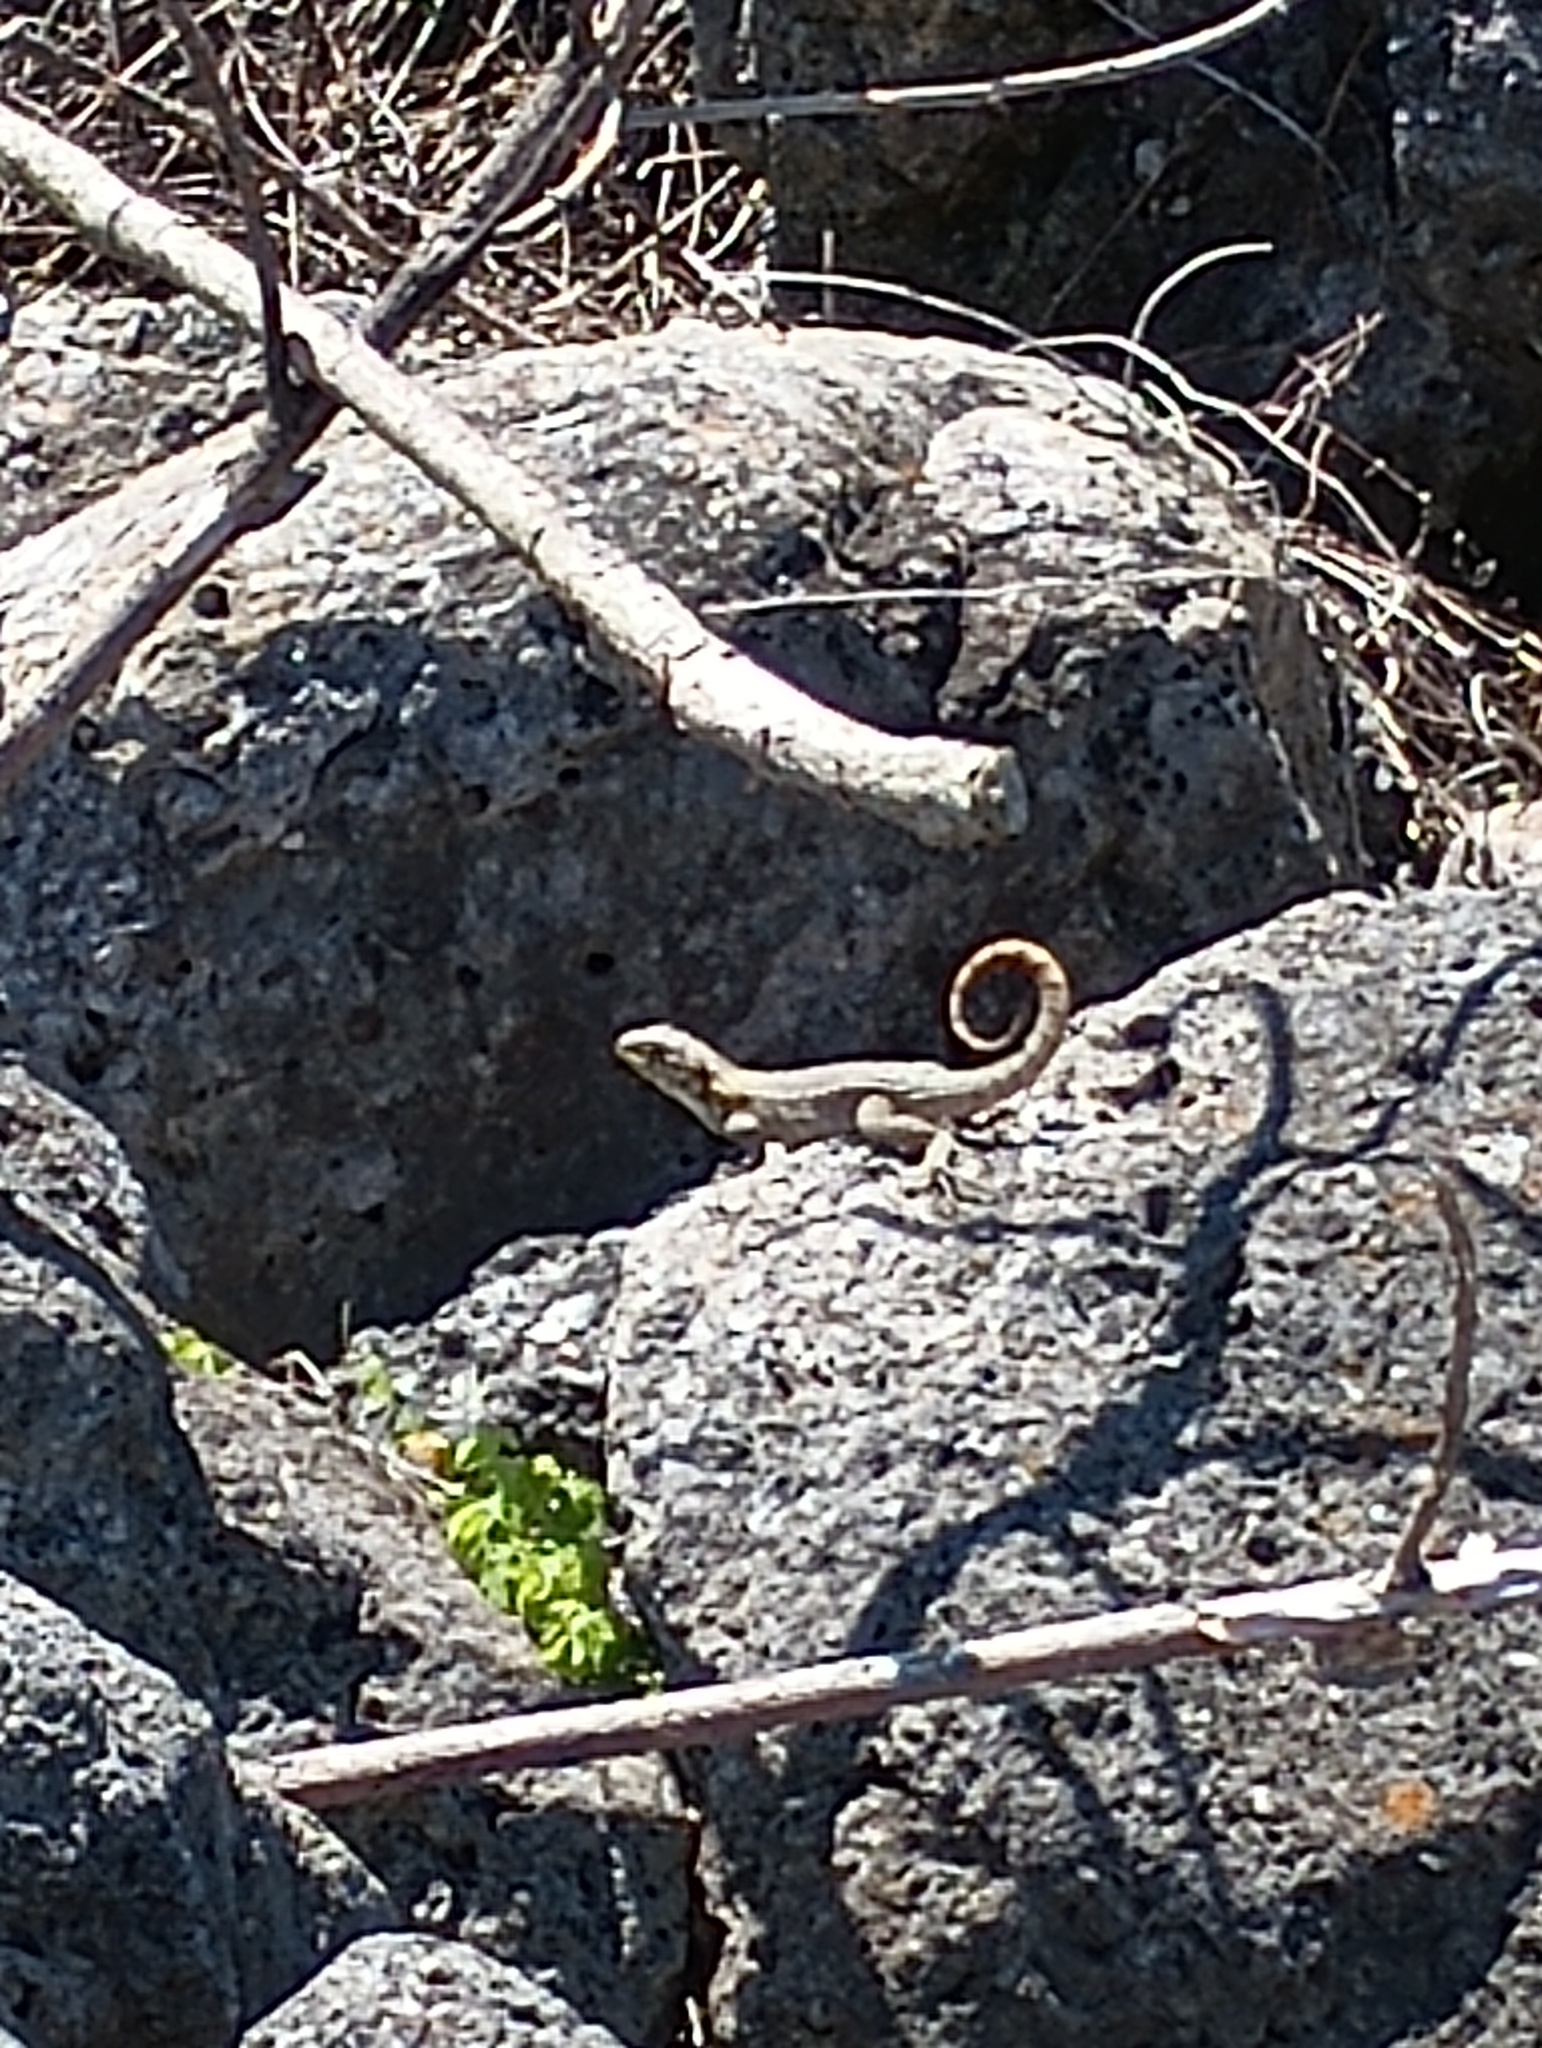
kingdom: Animalia
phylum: Chordata
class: Squamata
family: Leiocephalidae
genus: Leiocephalus
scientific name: Leiocephalus carinatus
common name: Northern curly-tailed lizard
